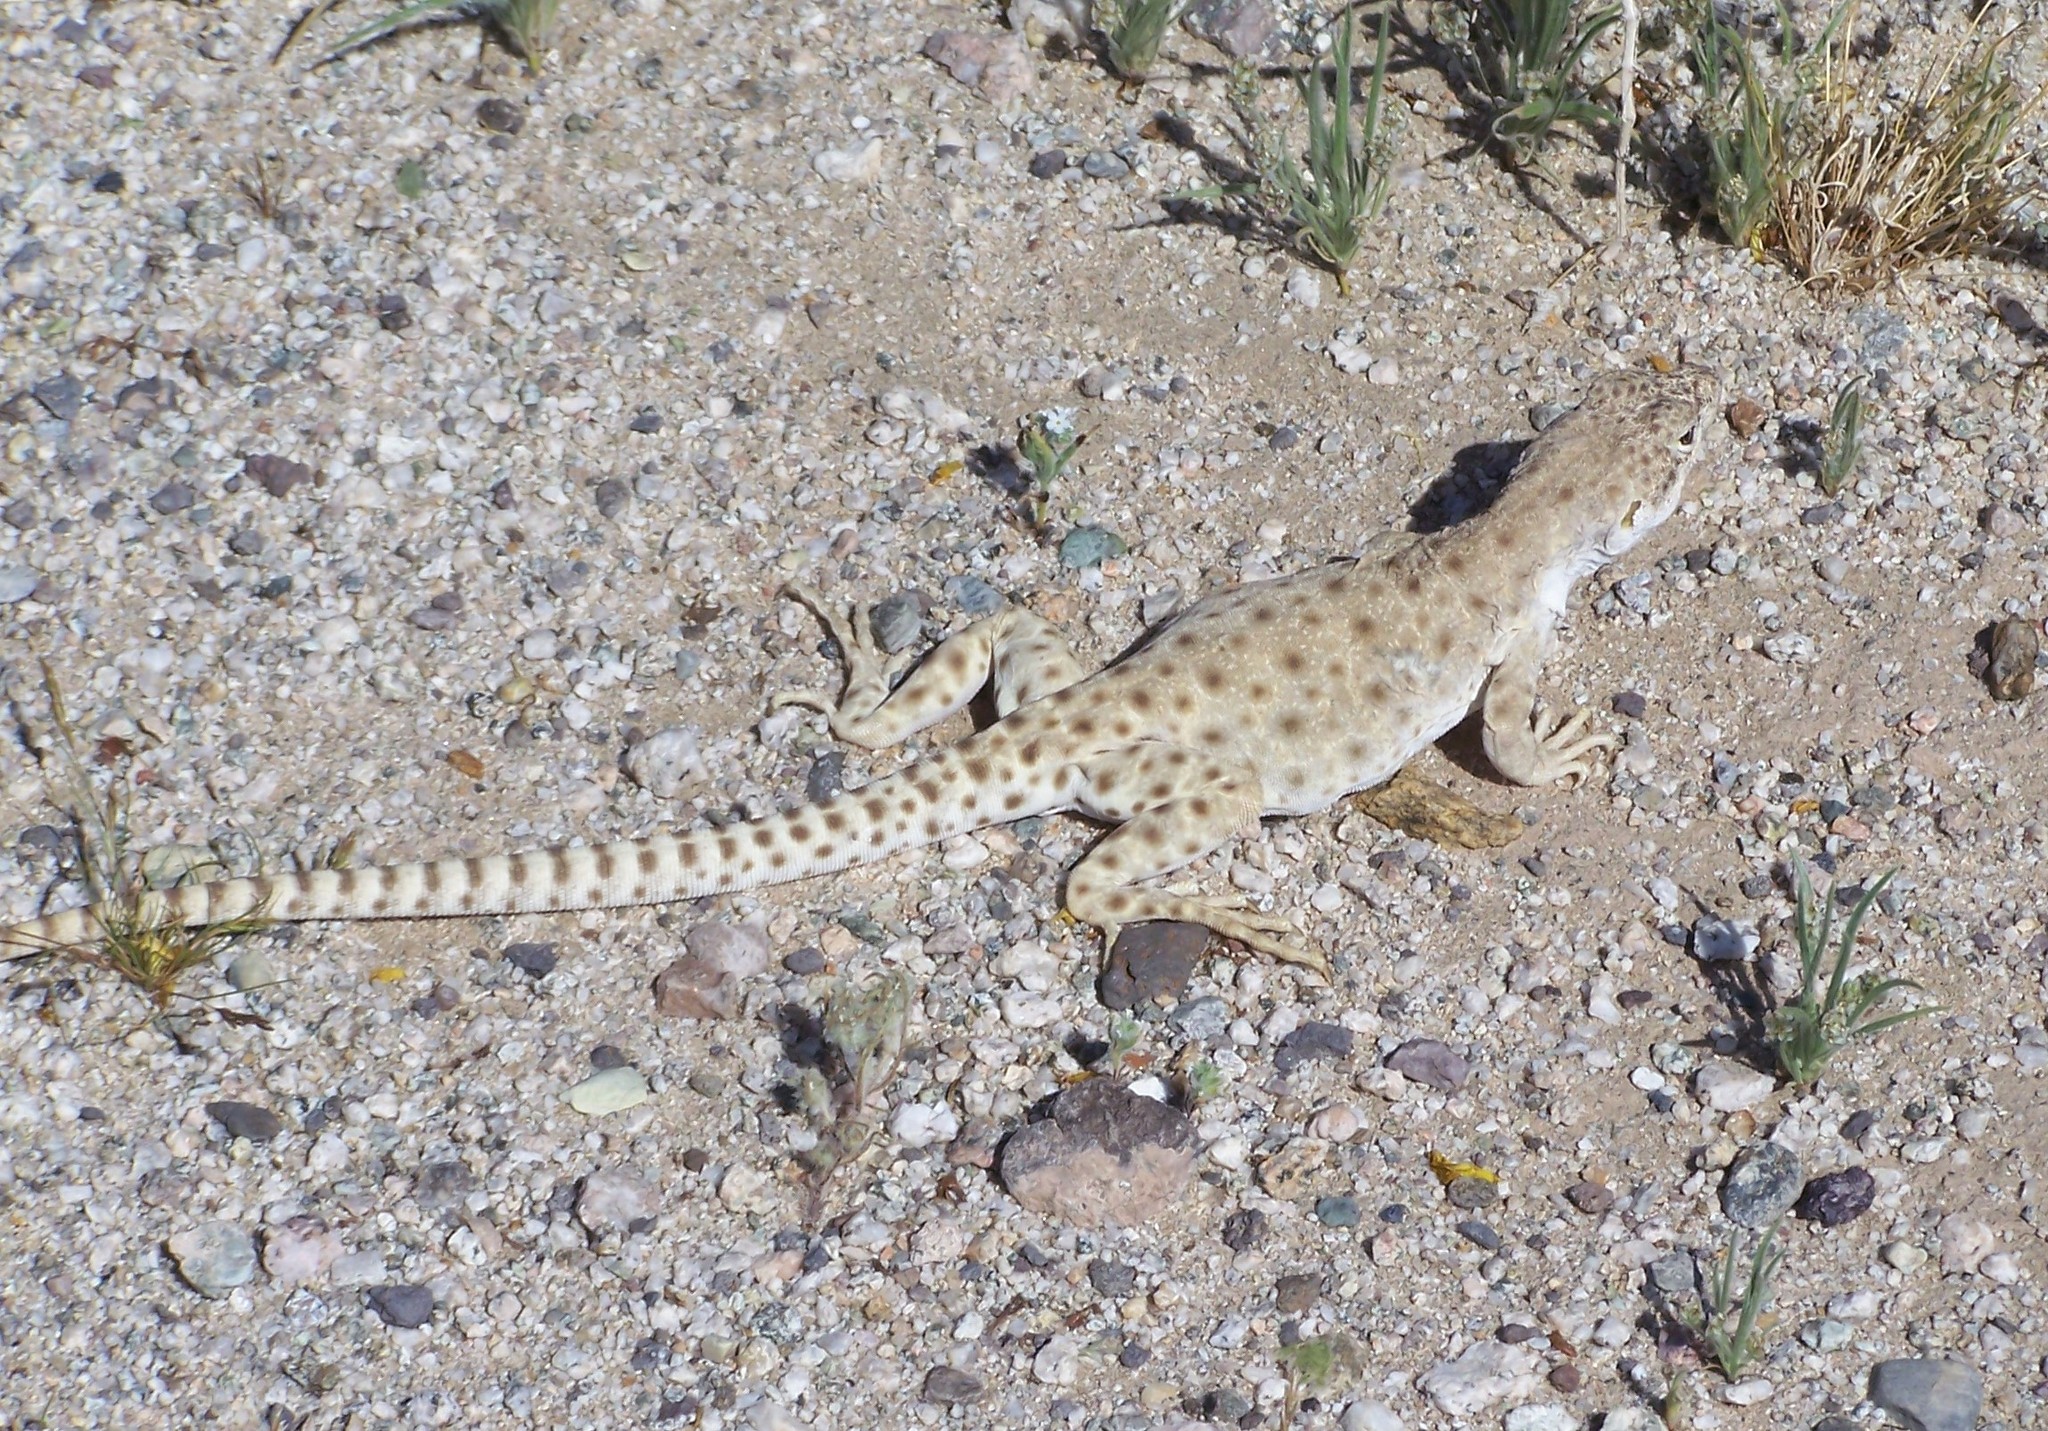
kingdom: Animalia
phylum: Chordata
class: Squamata
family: Crotaphytidae
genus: Gambelia
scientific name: Gambelia wislizenii
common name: Longnose leopard lizard
